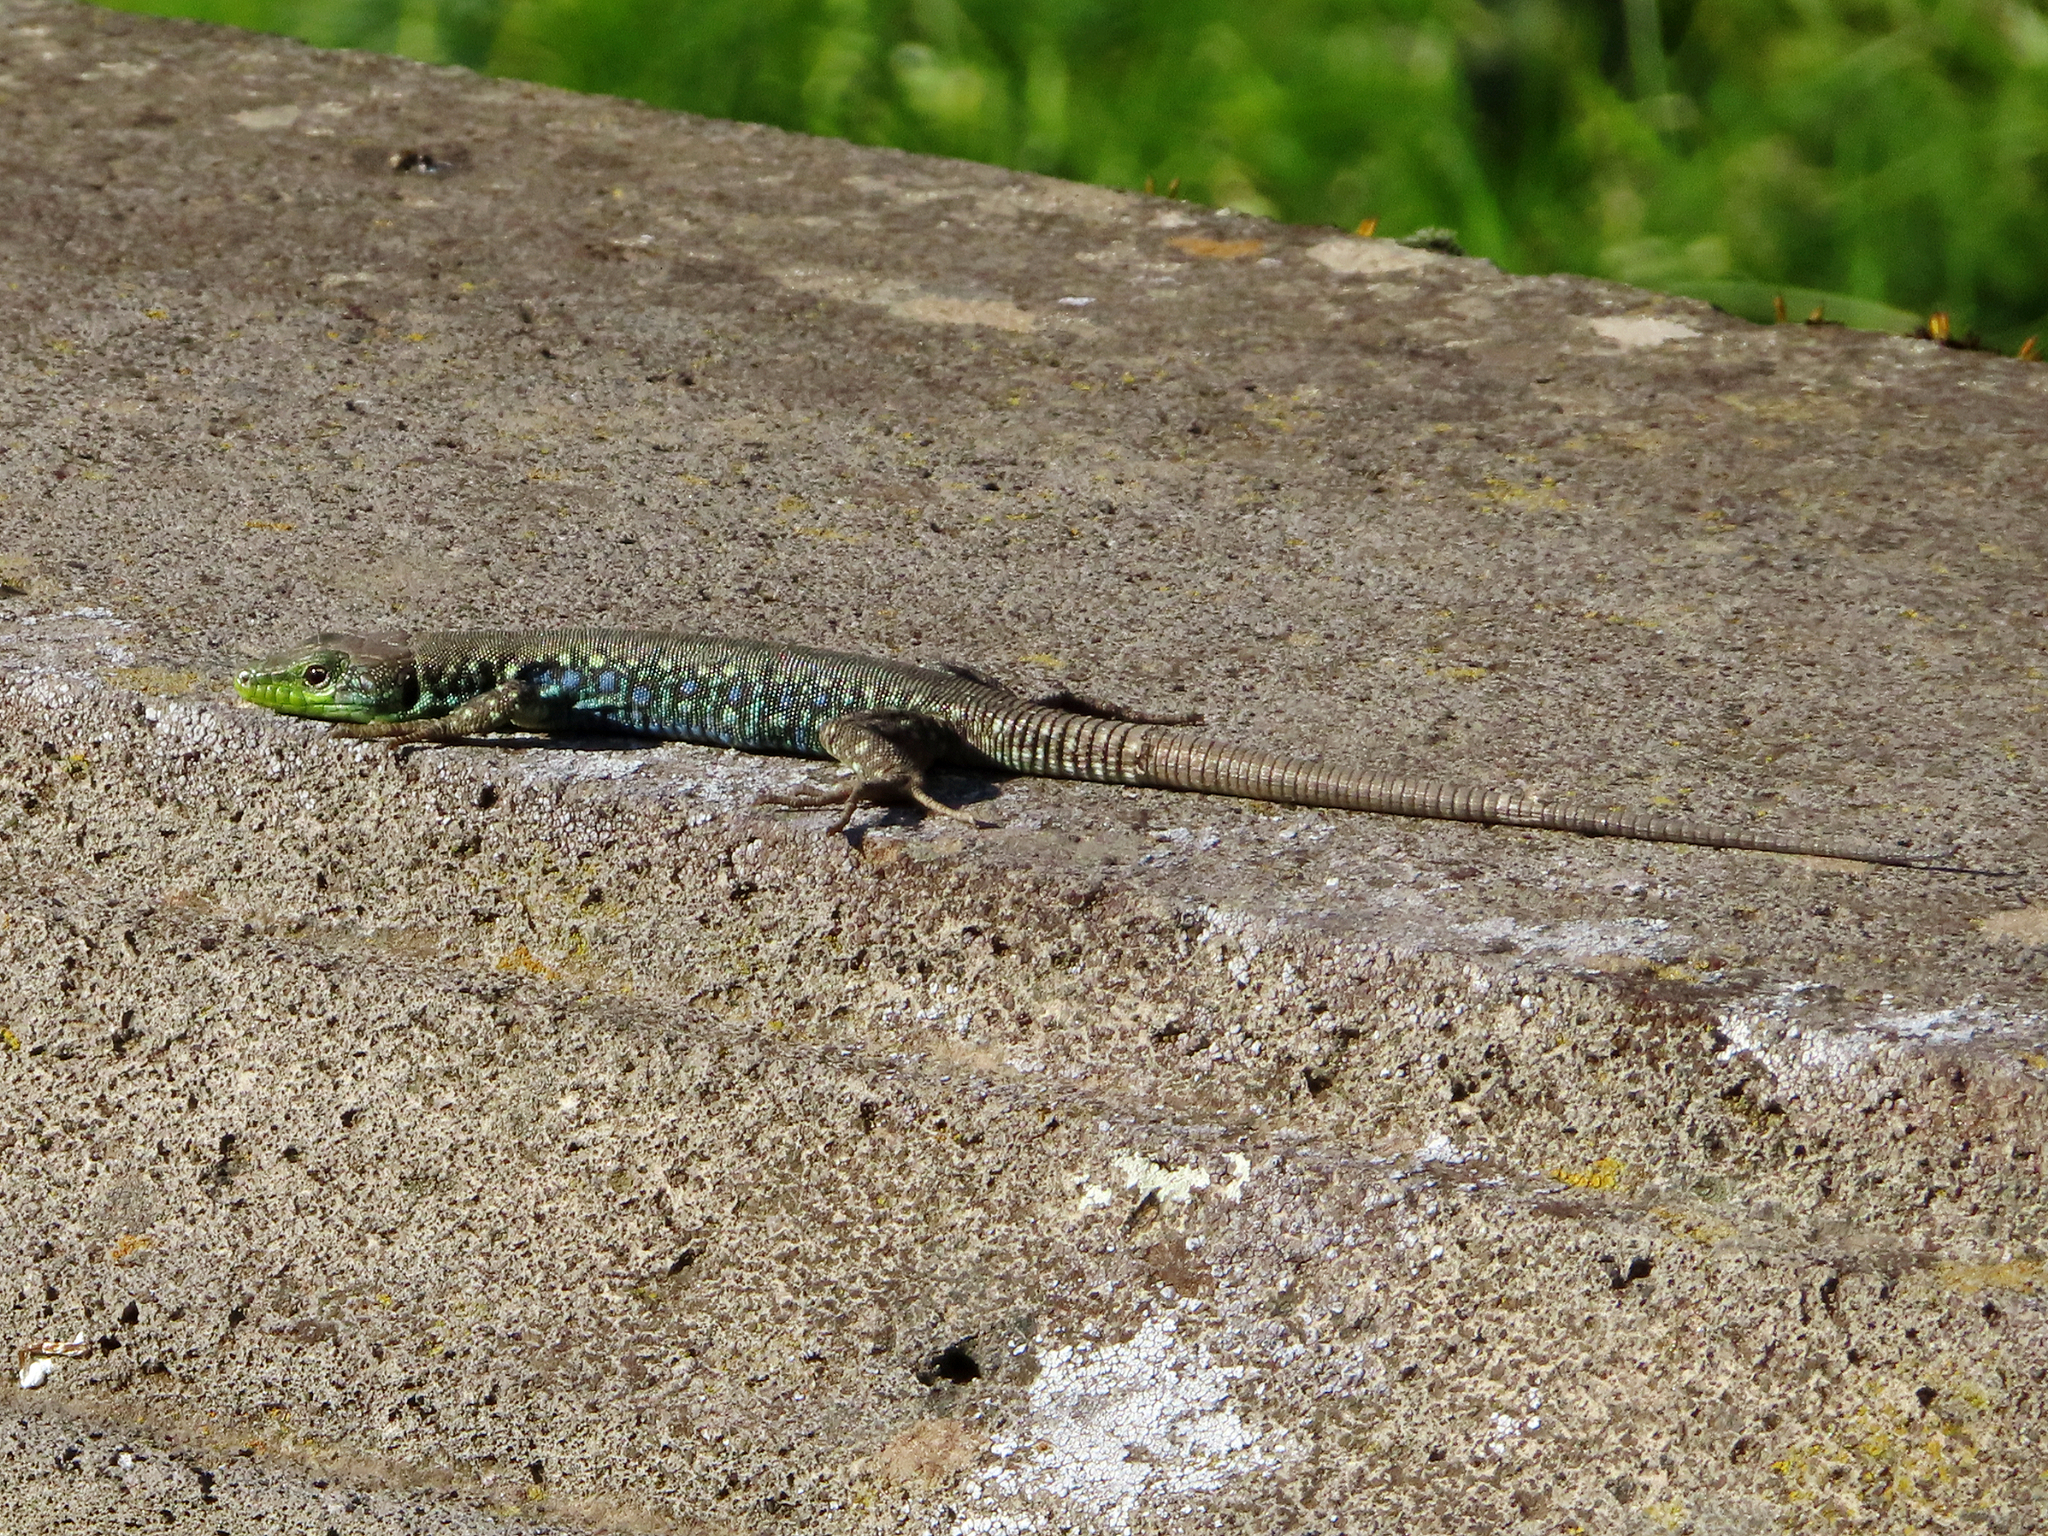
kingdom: Animalia
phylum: Chordata
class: Squamata
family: Lacertidae
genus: Darevskia
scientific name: Darevskia raddei
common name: Radde's lizard
